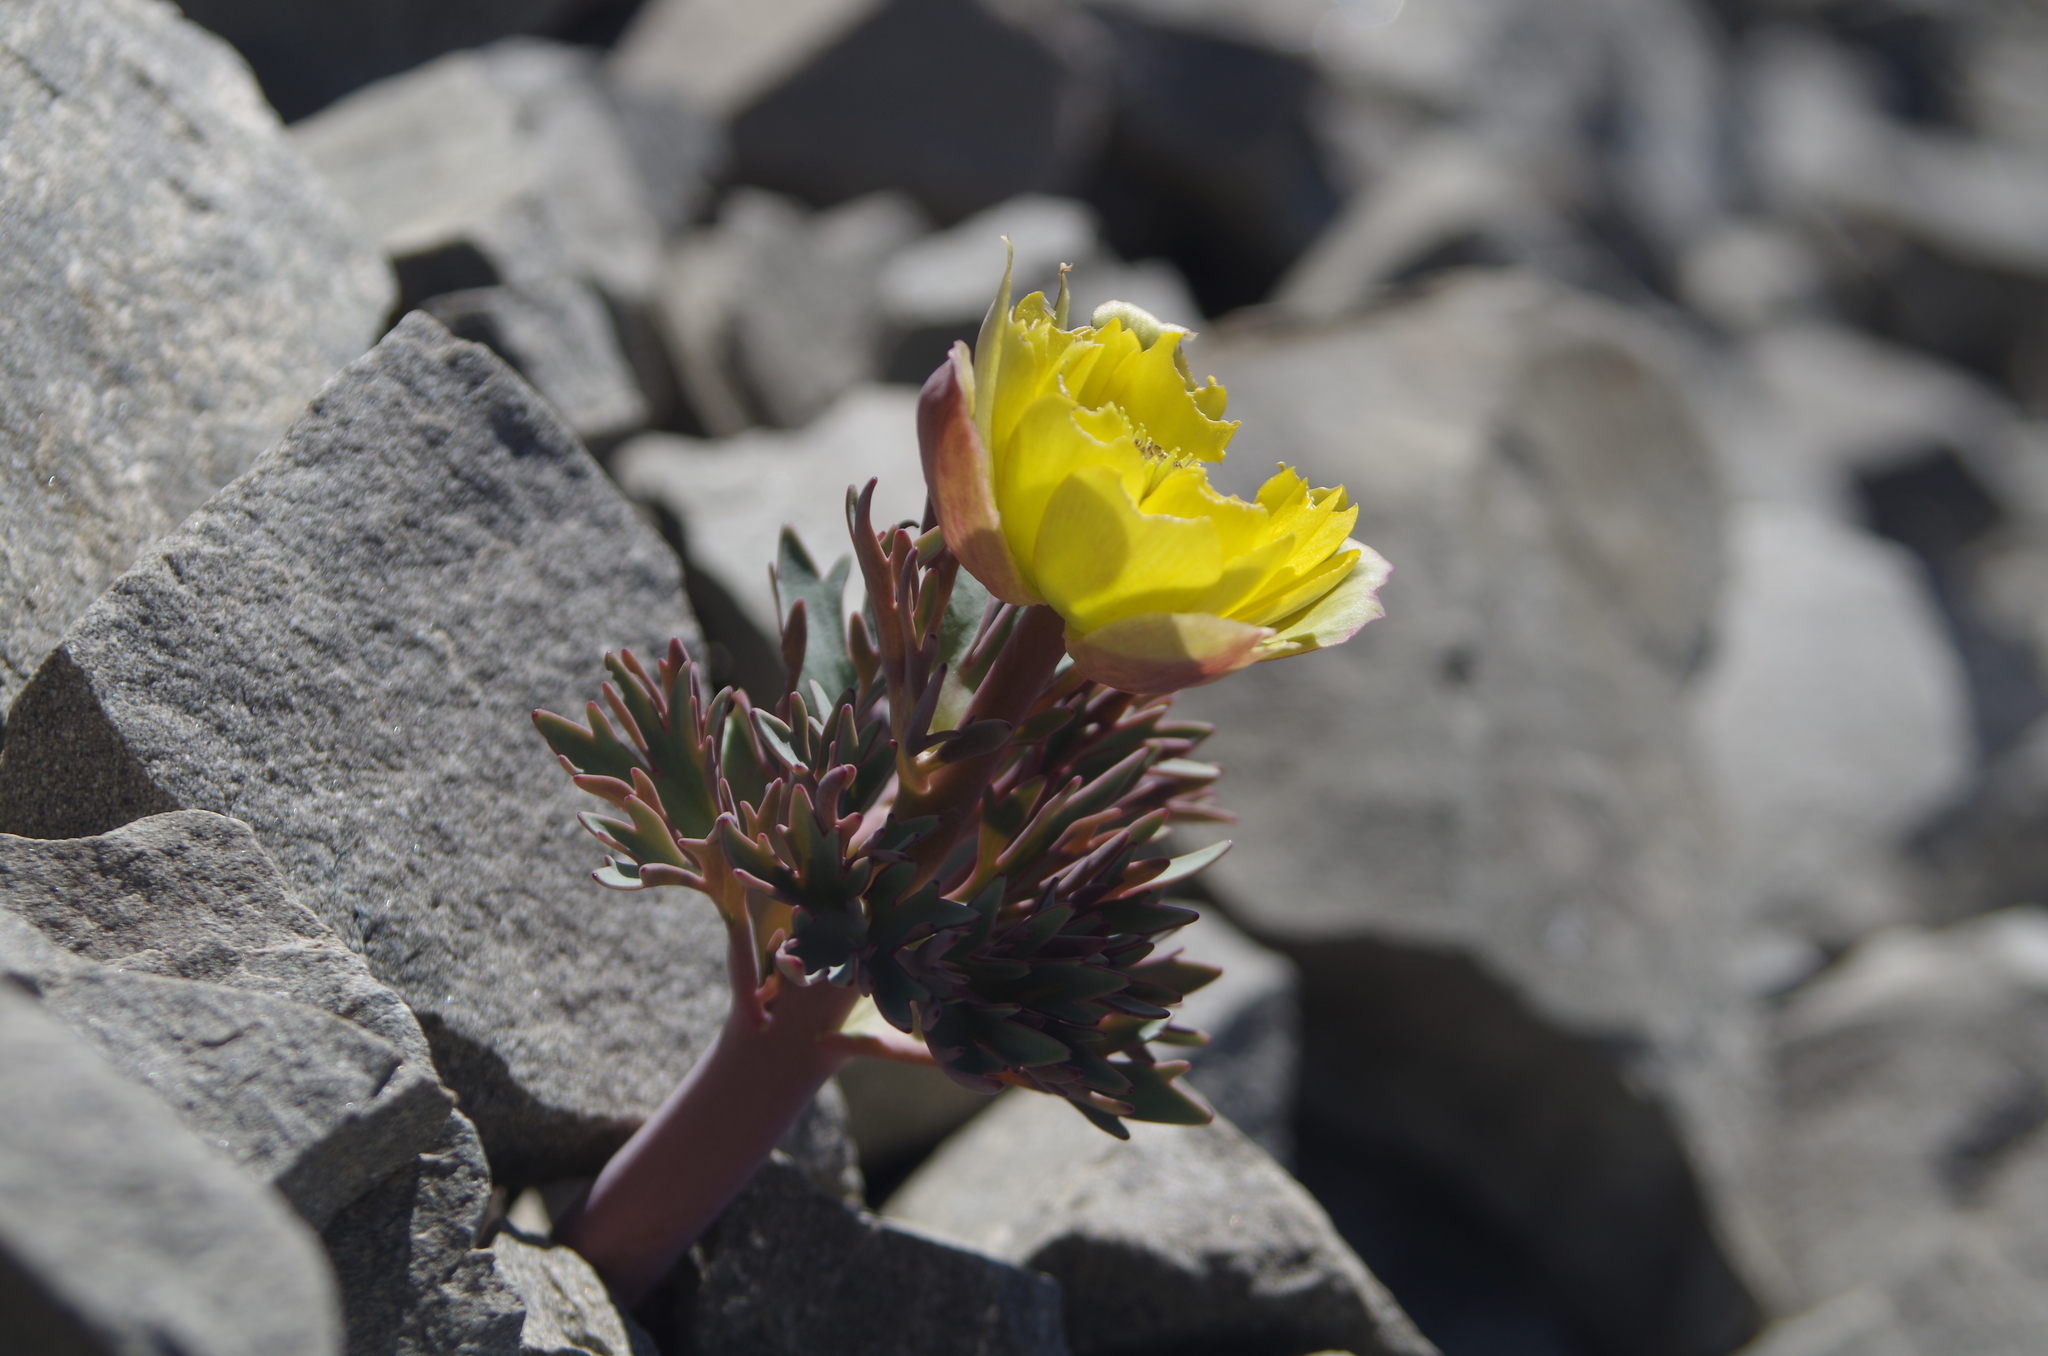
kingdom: Plantae
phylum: Tracheophyta
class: Magnoliopsida
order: Ranunculales
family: Ranunculaceae
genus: Ranunculus
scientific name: Ranunculus haastii
